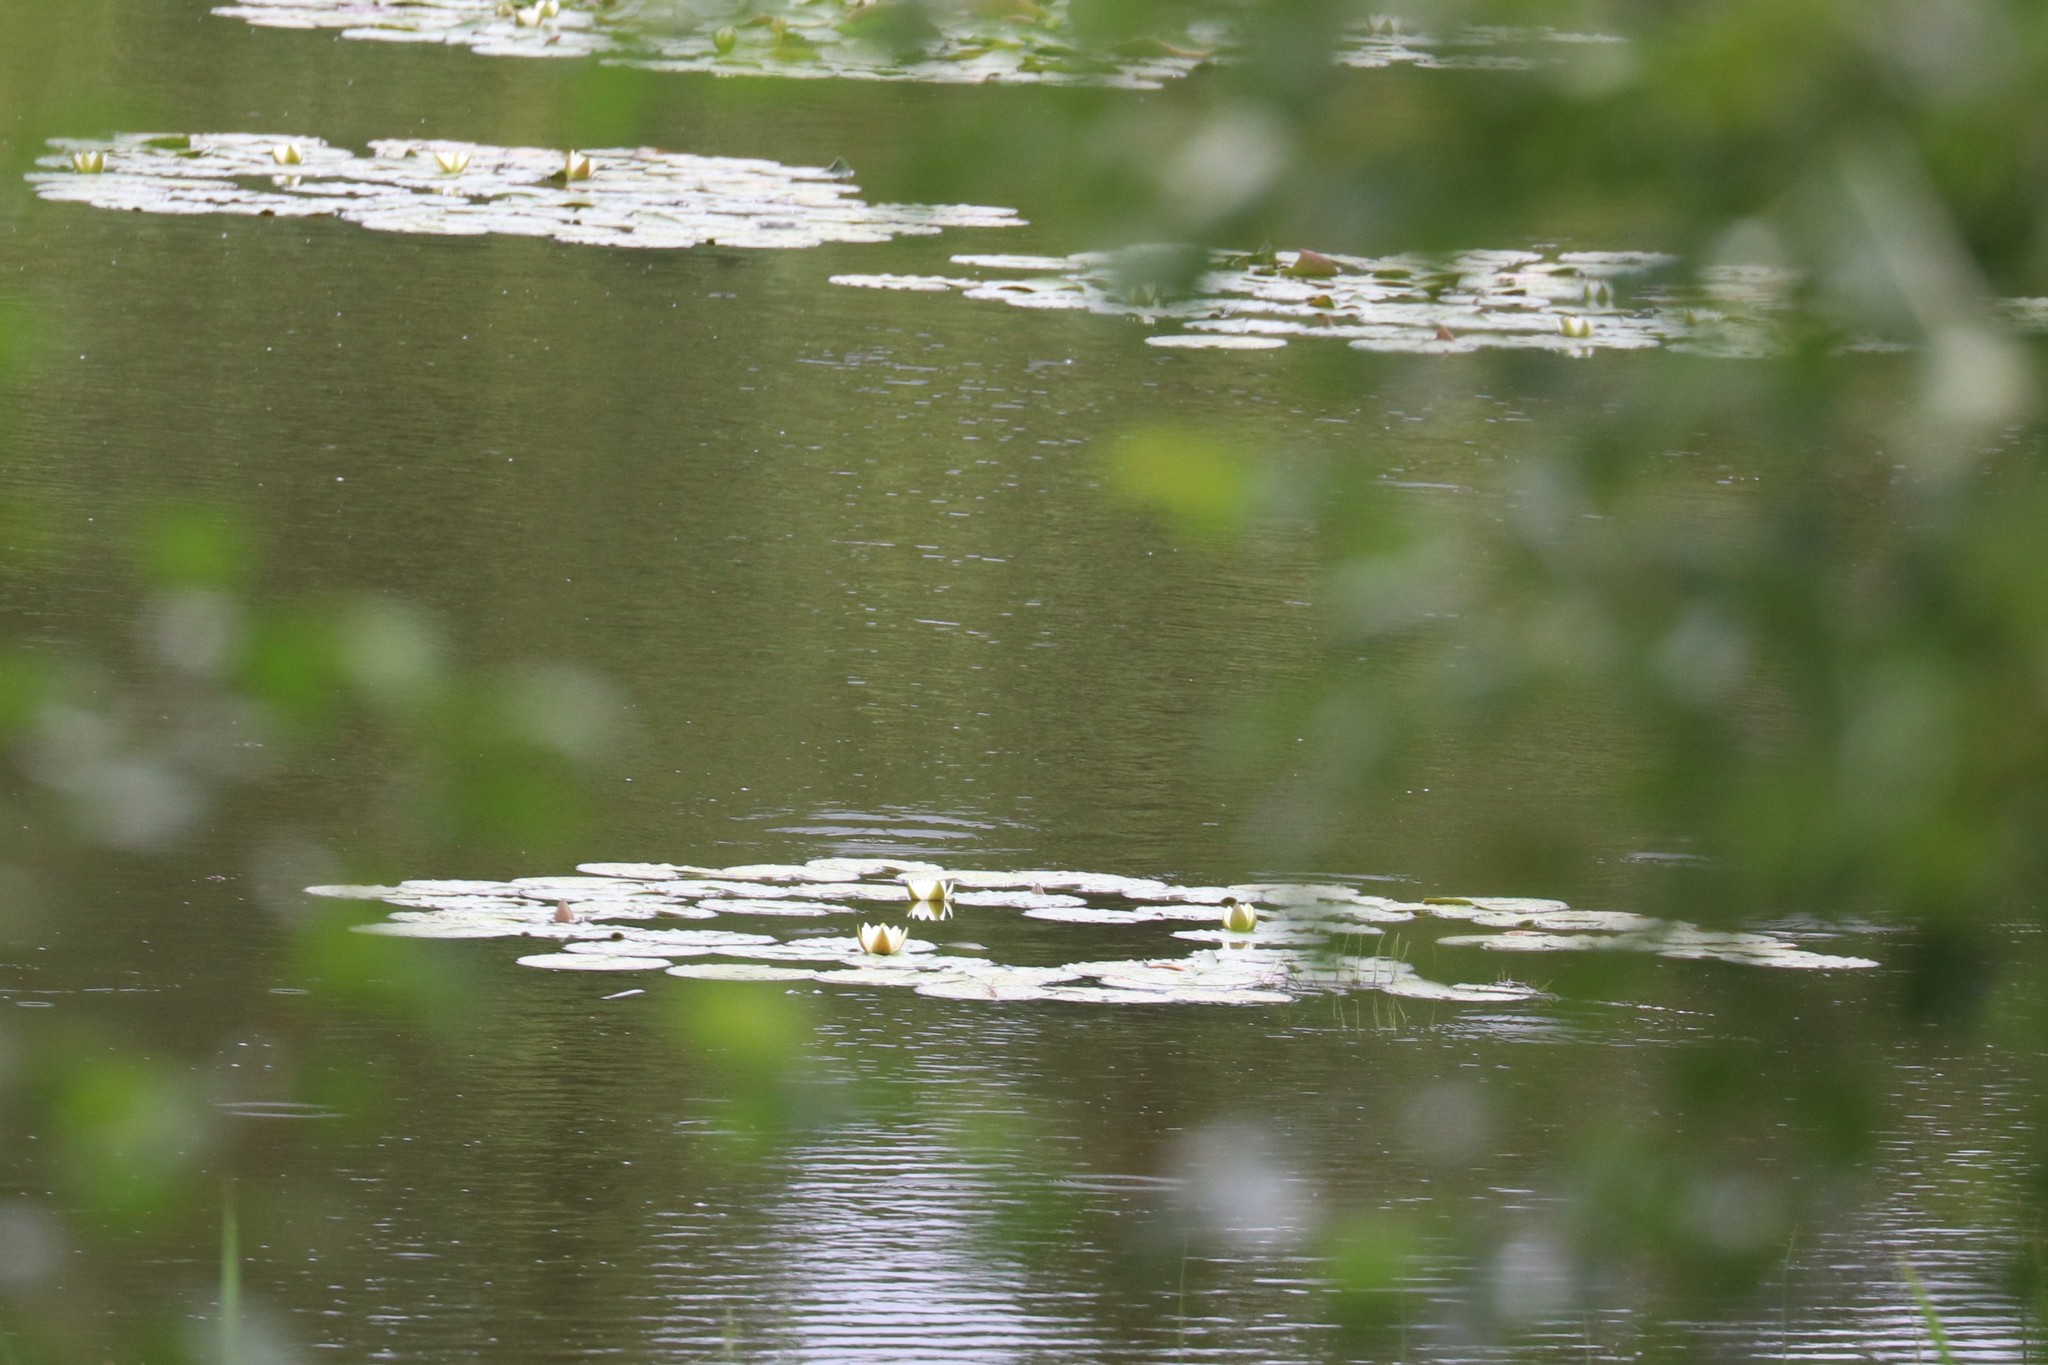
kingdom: Plantae
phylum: Tracheophyta
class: Magnoliopsida
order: Nymphaeales
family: Nymphaeaceae
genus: Nymphaea
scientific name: Nymphaea candida
